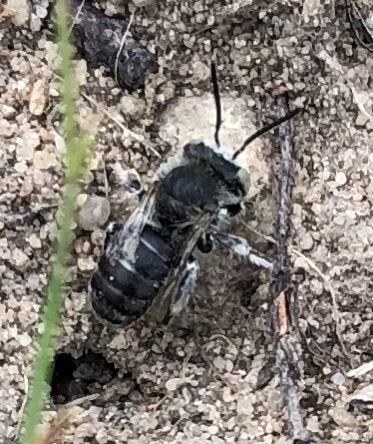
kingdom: Animalia
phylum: Arthropoda
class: Insecta
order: Hymenoptera
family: Apidae
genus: Anthophora
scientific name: Anthophora bimaculata
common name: Green-eyed flower bee
